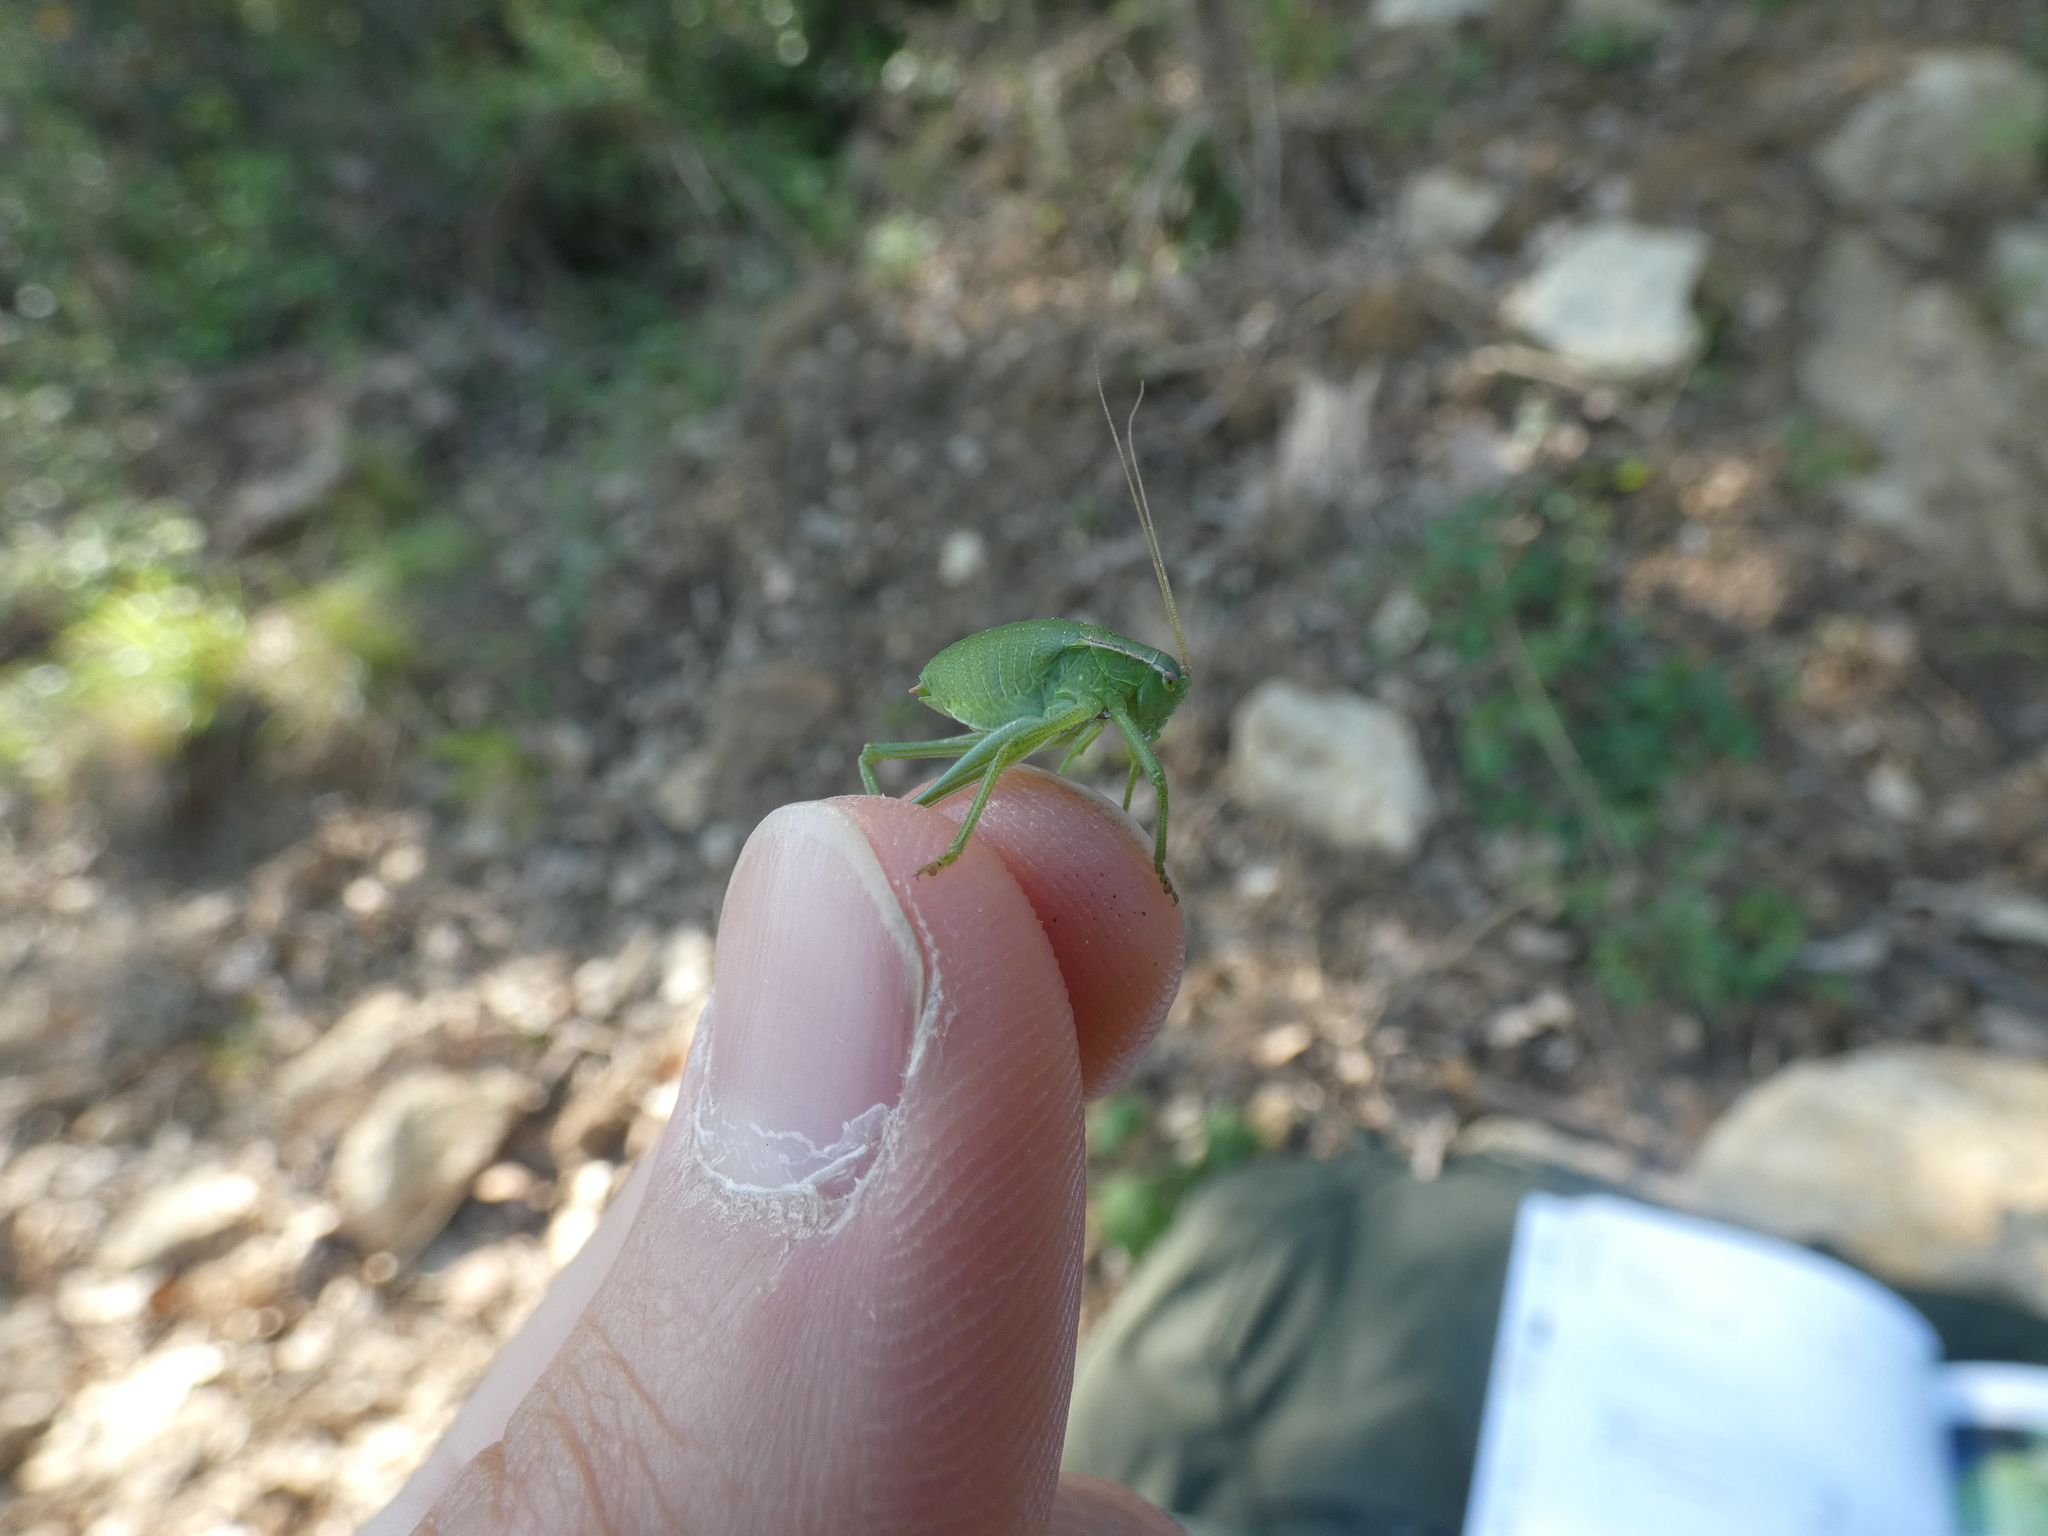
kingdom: Animalia
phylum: Arthropoda
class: Insecta
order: Orthoptera
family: Tettigoniidae
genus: Isophya
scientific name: Isophya pyrenaea
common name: Pyrenean plump bush-cricket
